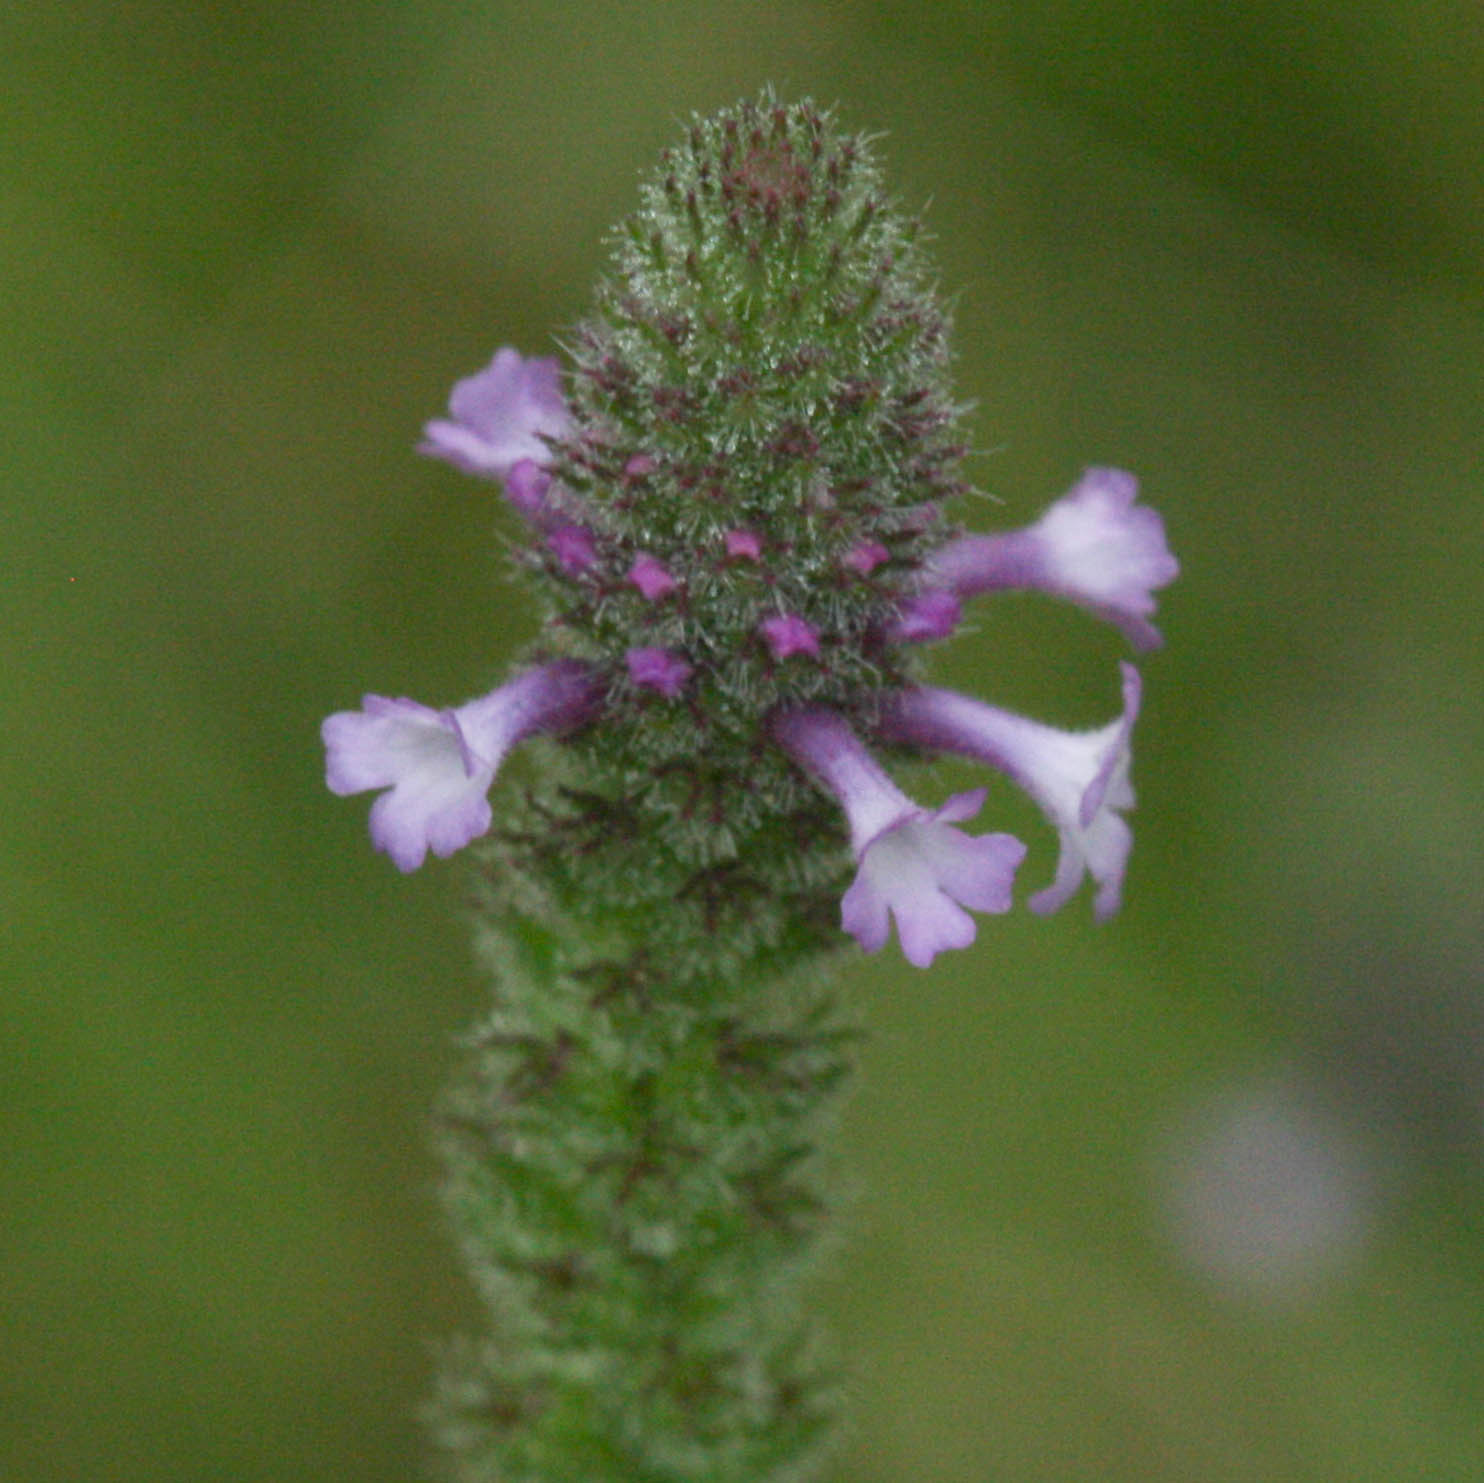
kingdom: Plantae
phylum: Tracheophyta
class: Magnoliopsida
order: Lamiales
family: Verbenaceae
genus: Verbena
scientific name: Verbena lasiostachys
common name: Vervain
